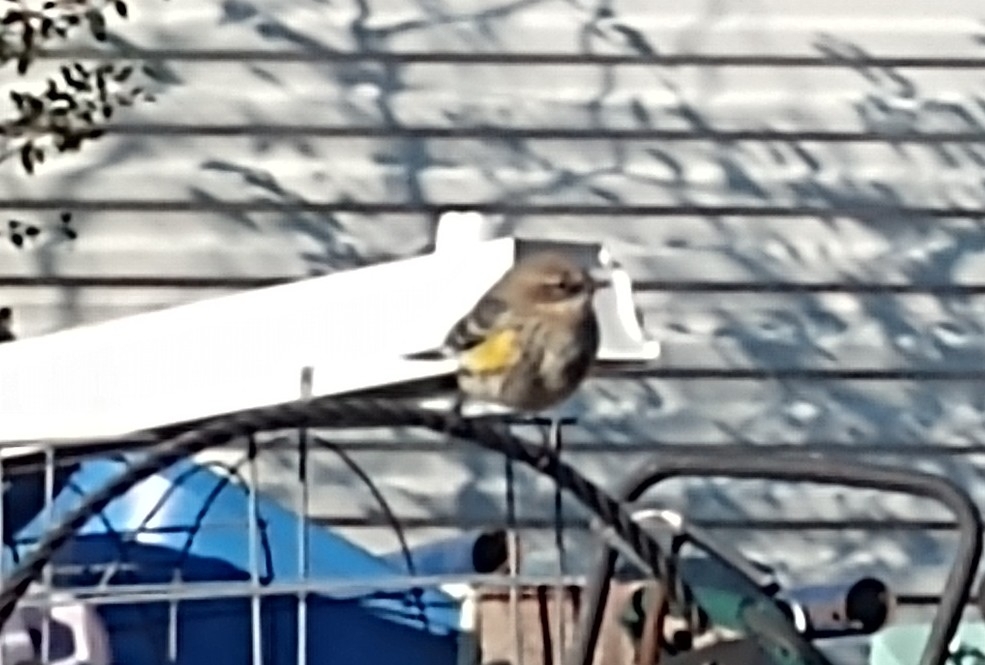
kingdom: Animalia
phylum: Chordata
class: Aves
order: Passeriformes
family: Parulidae
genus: Setophaga
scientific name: Setophaga coronata
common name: Myrtle warbler
